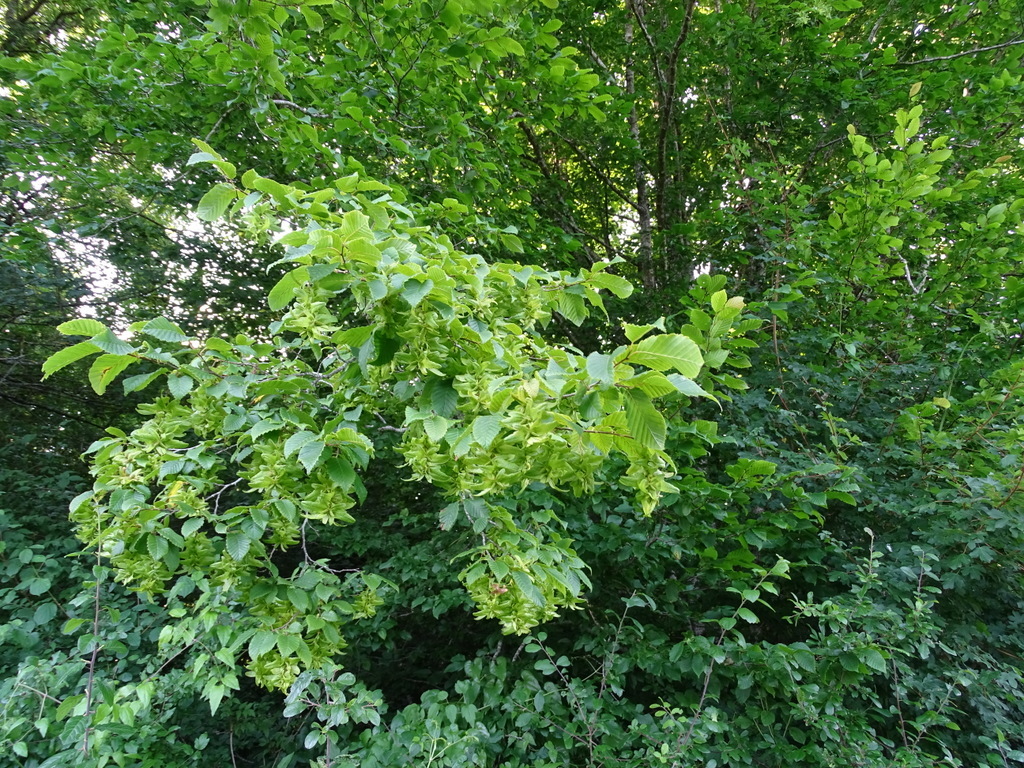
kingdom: Plantae
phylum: Tracheophyta
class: Magnoliopsida
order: Fagales
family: Betulaceae
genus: Carpinus
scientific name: Carpinus betulus
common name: Hornbeam
